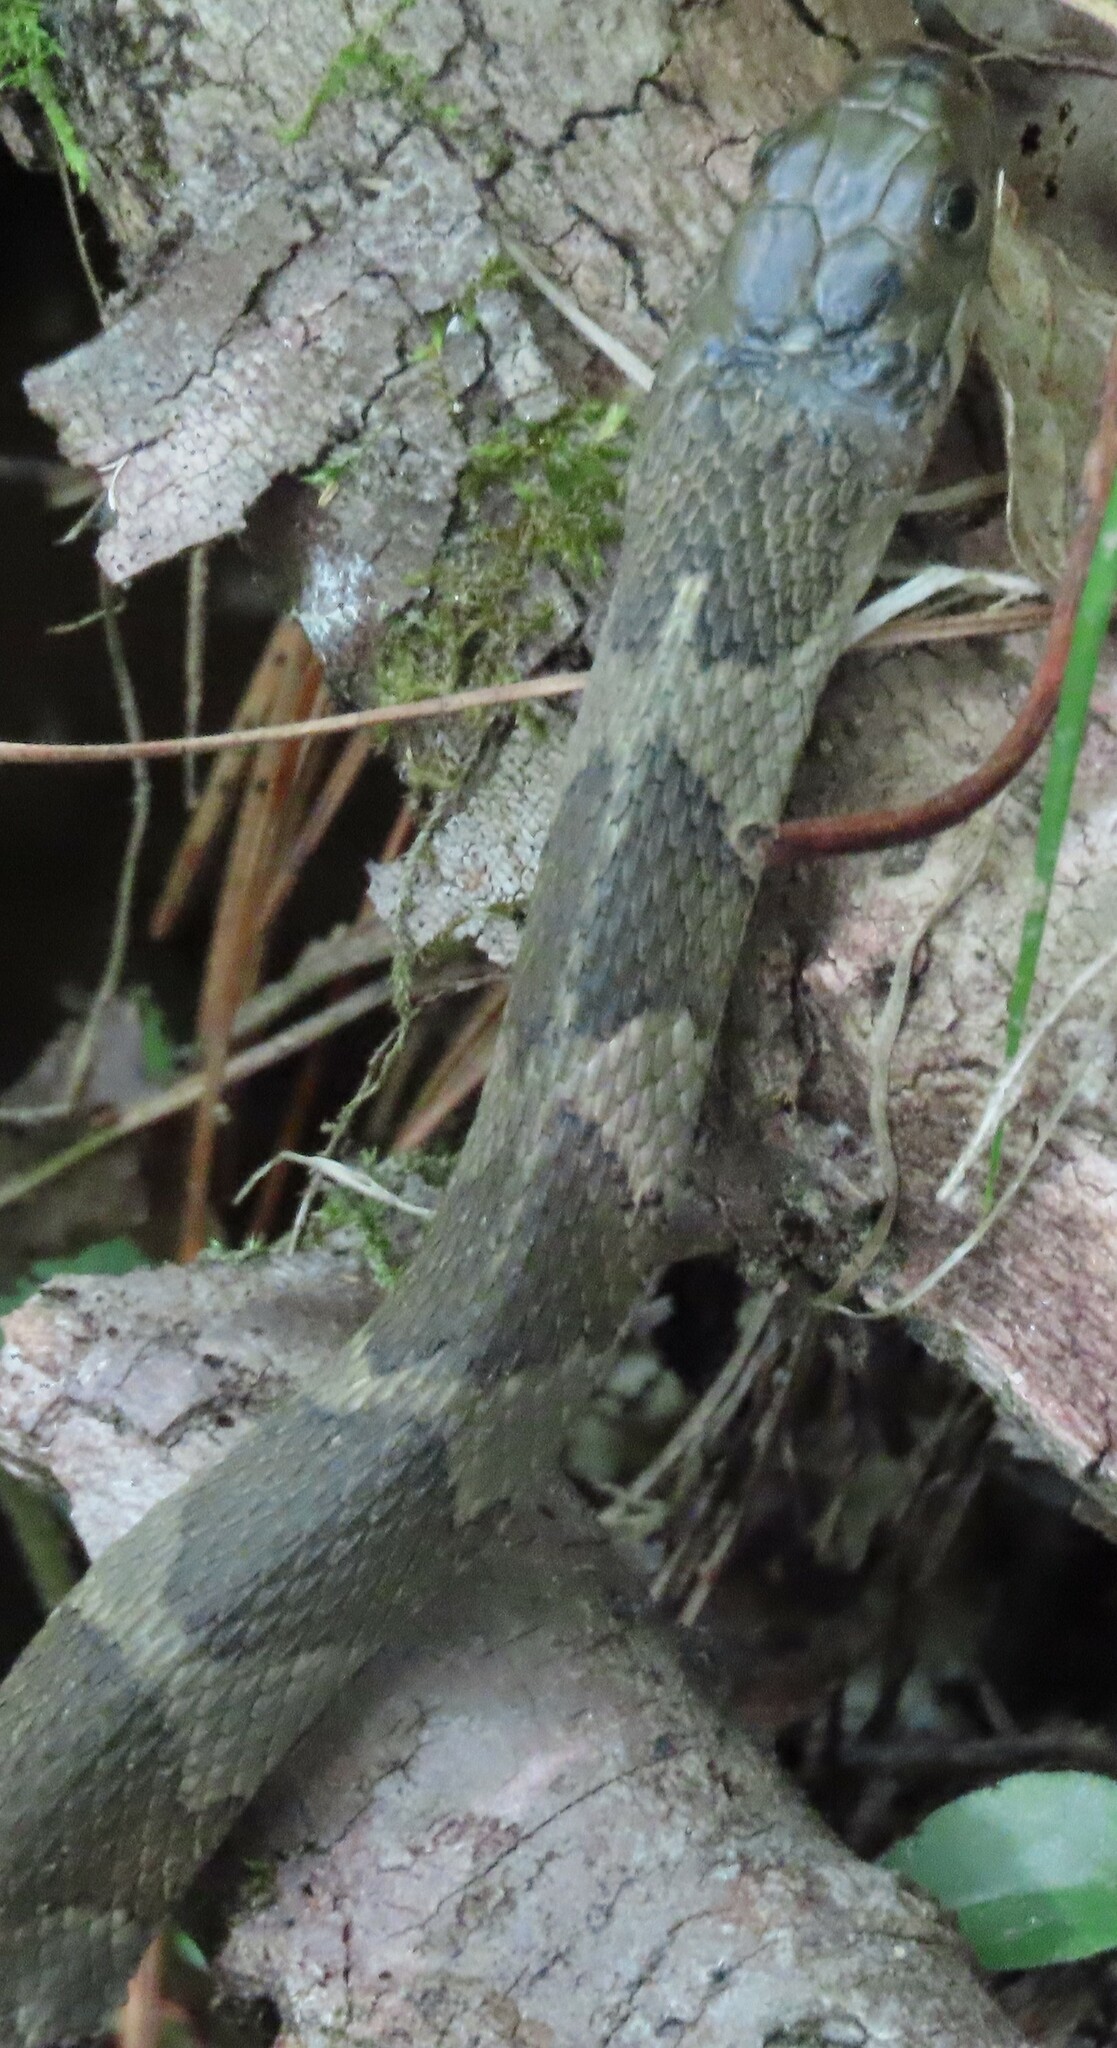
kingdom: Animalia
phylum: Chordata
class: Squamata
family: Colubridae
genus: Nerodia
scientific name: Nerodia sipedon
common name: Northern water snake
